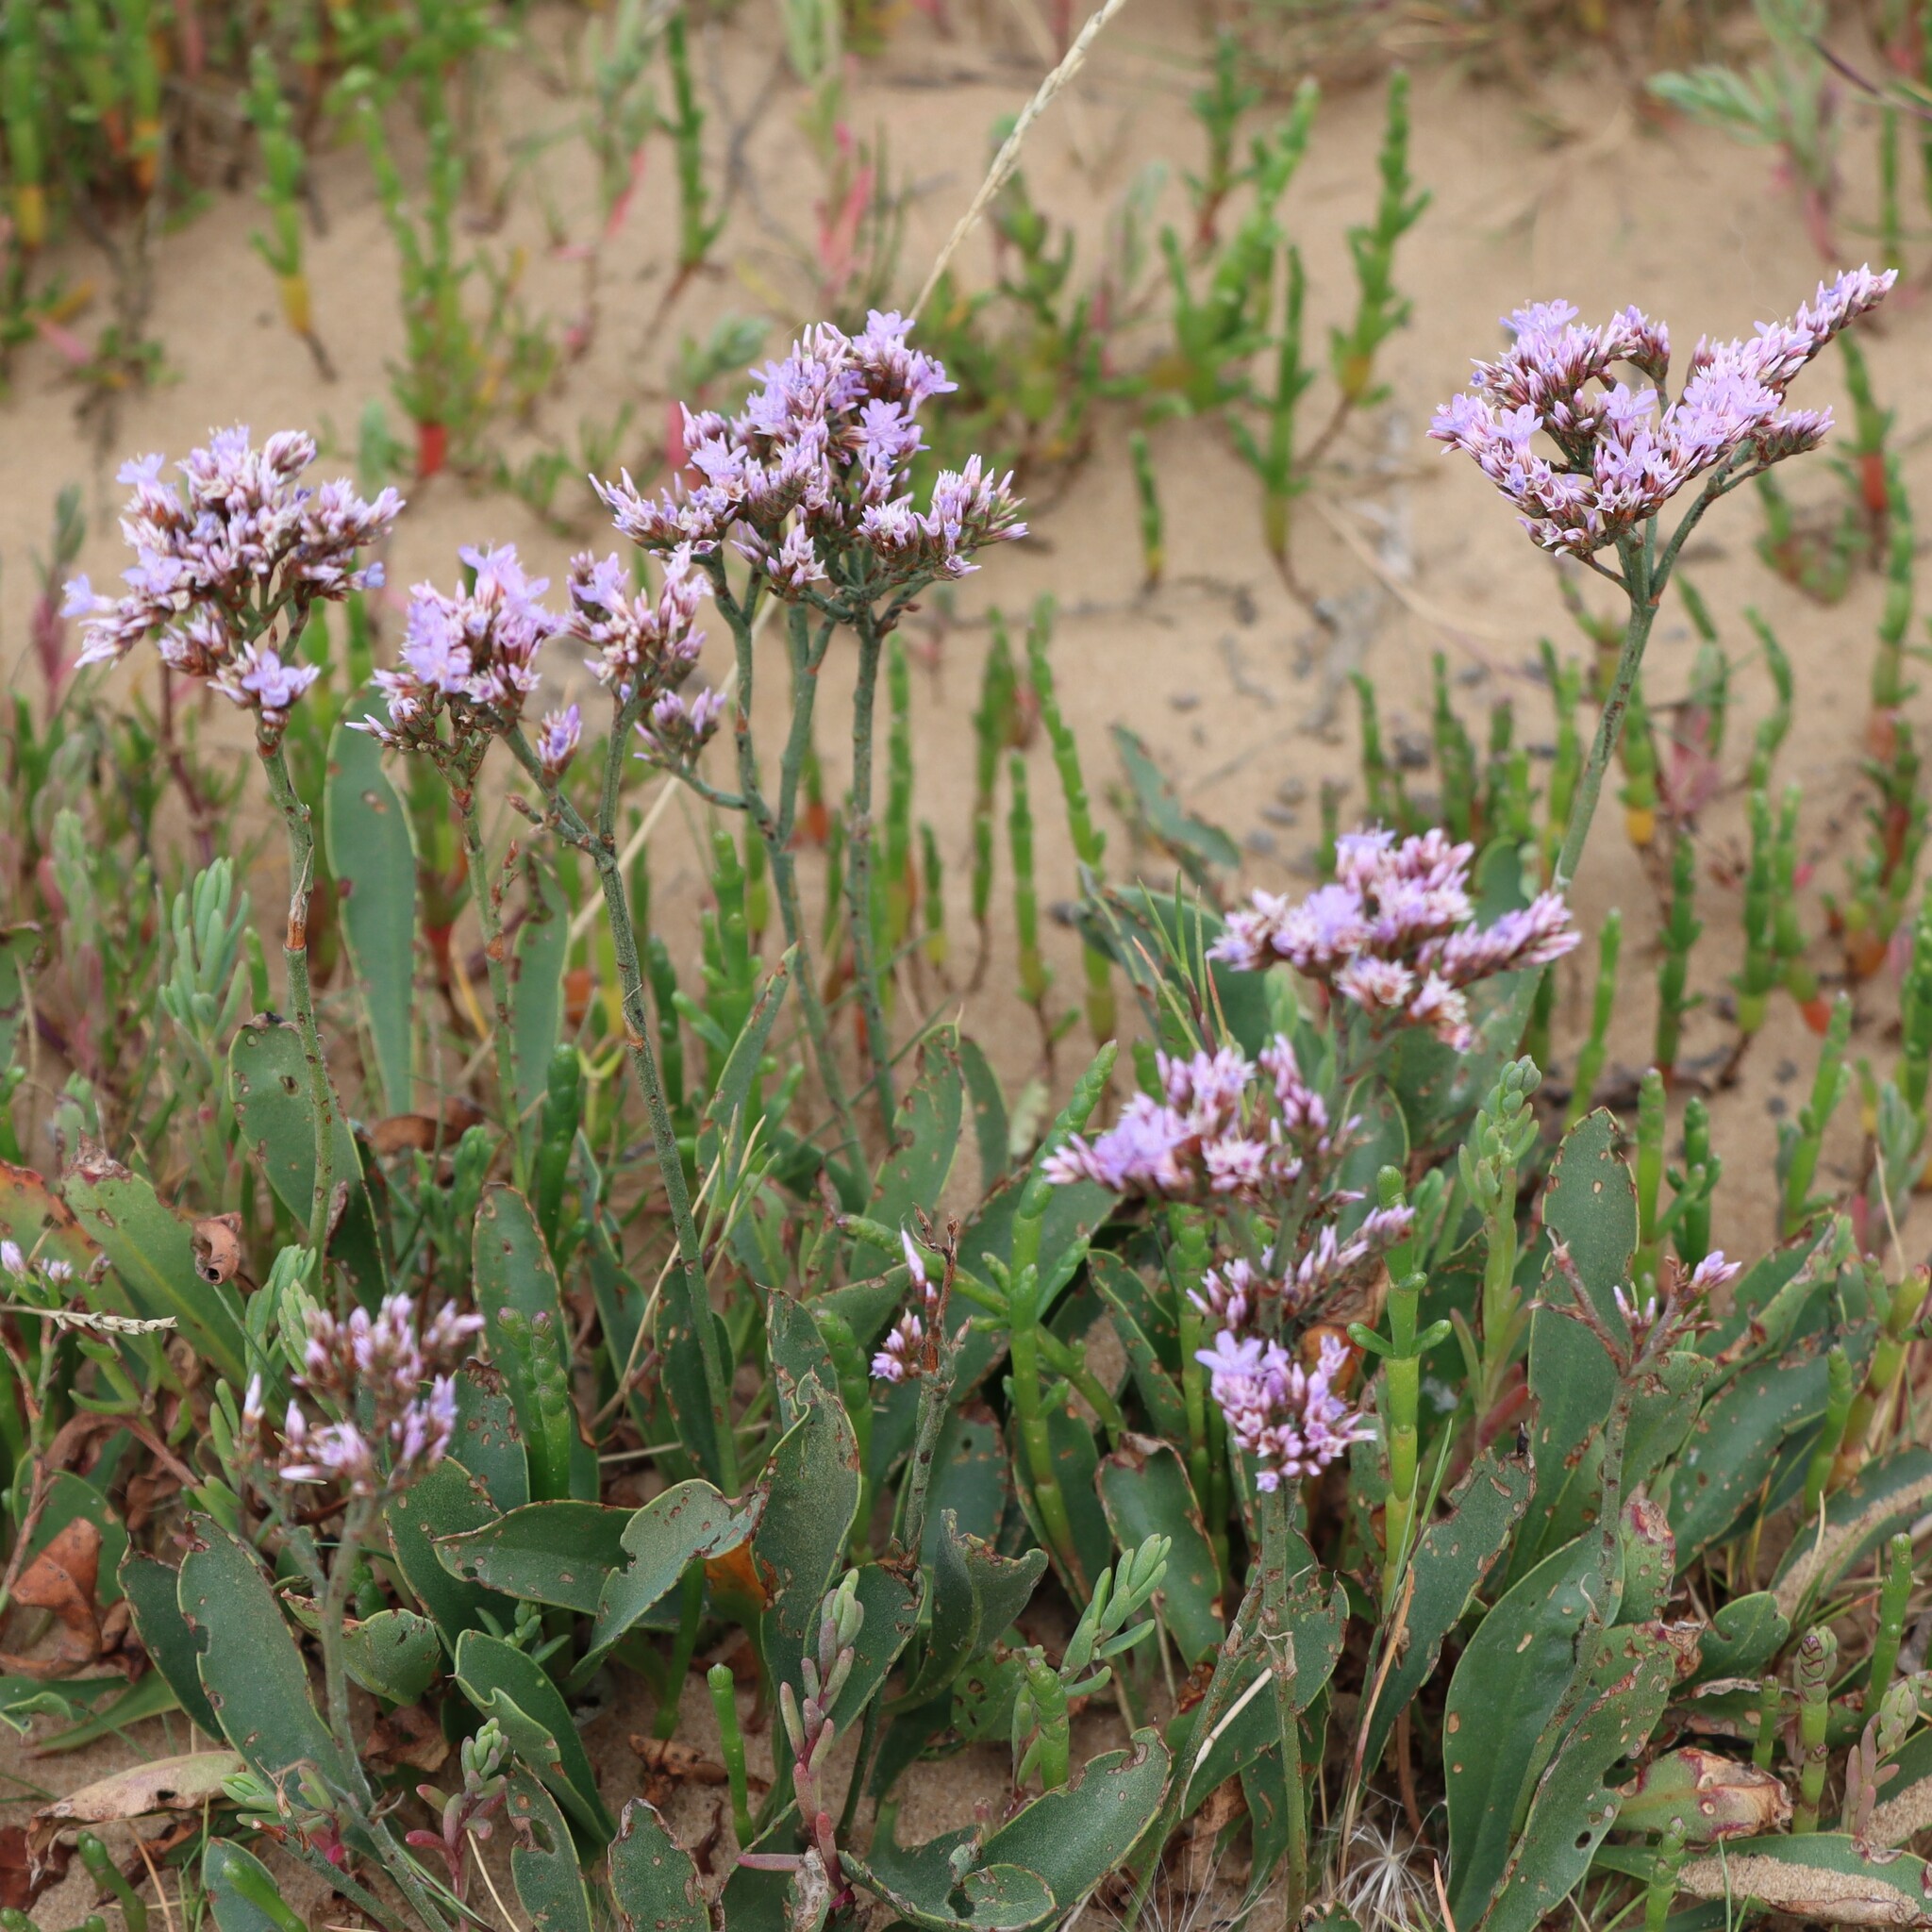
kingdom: Plantae
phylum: Tracheophyta
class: Magnoliopsida
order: Caryophyllales
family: Plumbaginaceae
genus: Limonium
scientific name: Limonium vulgare
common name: Common sea-lavender
